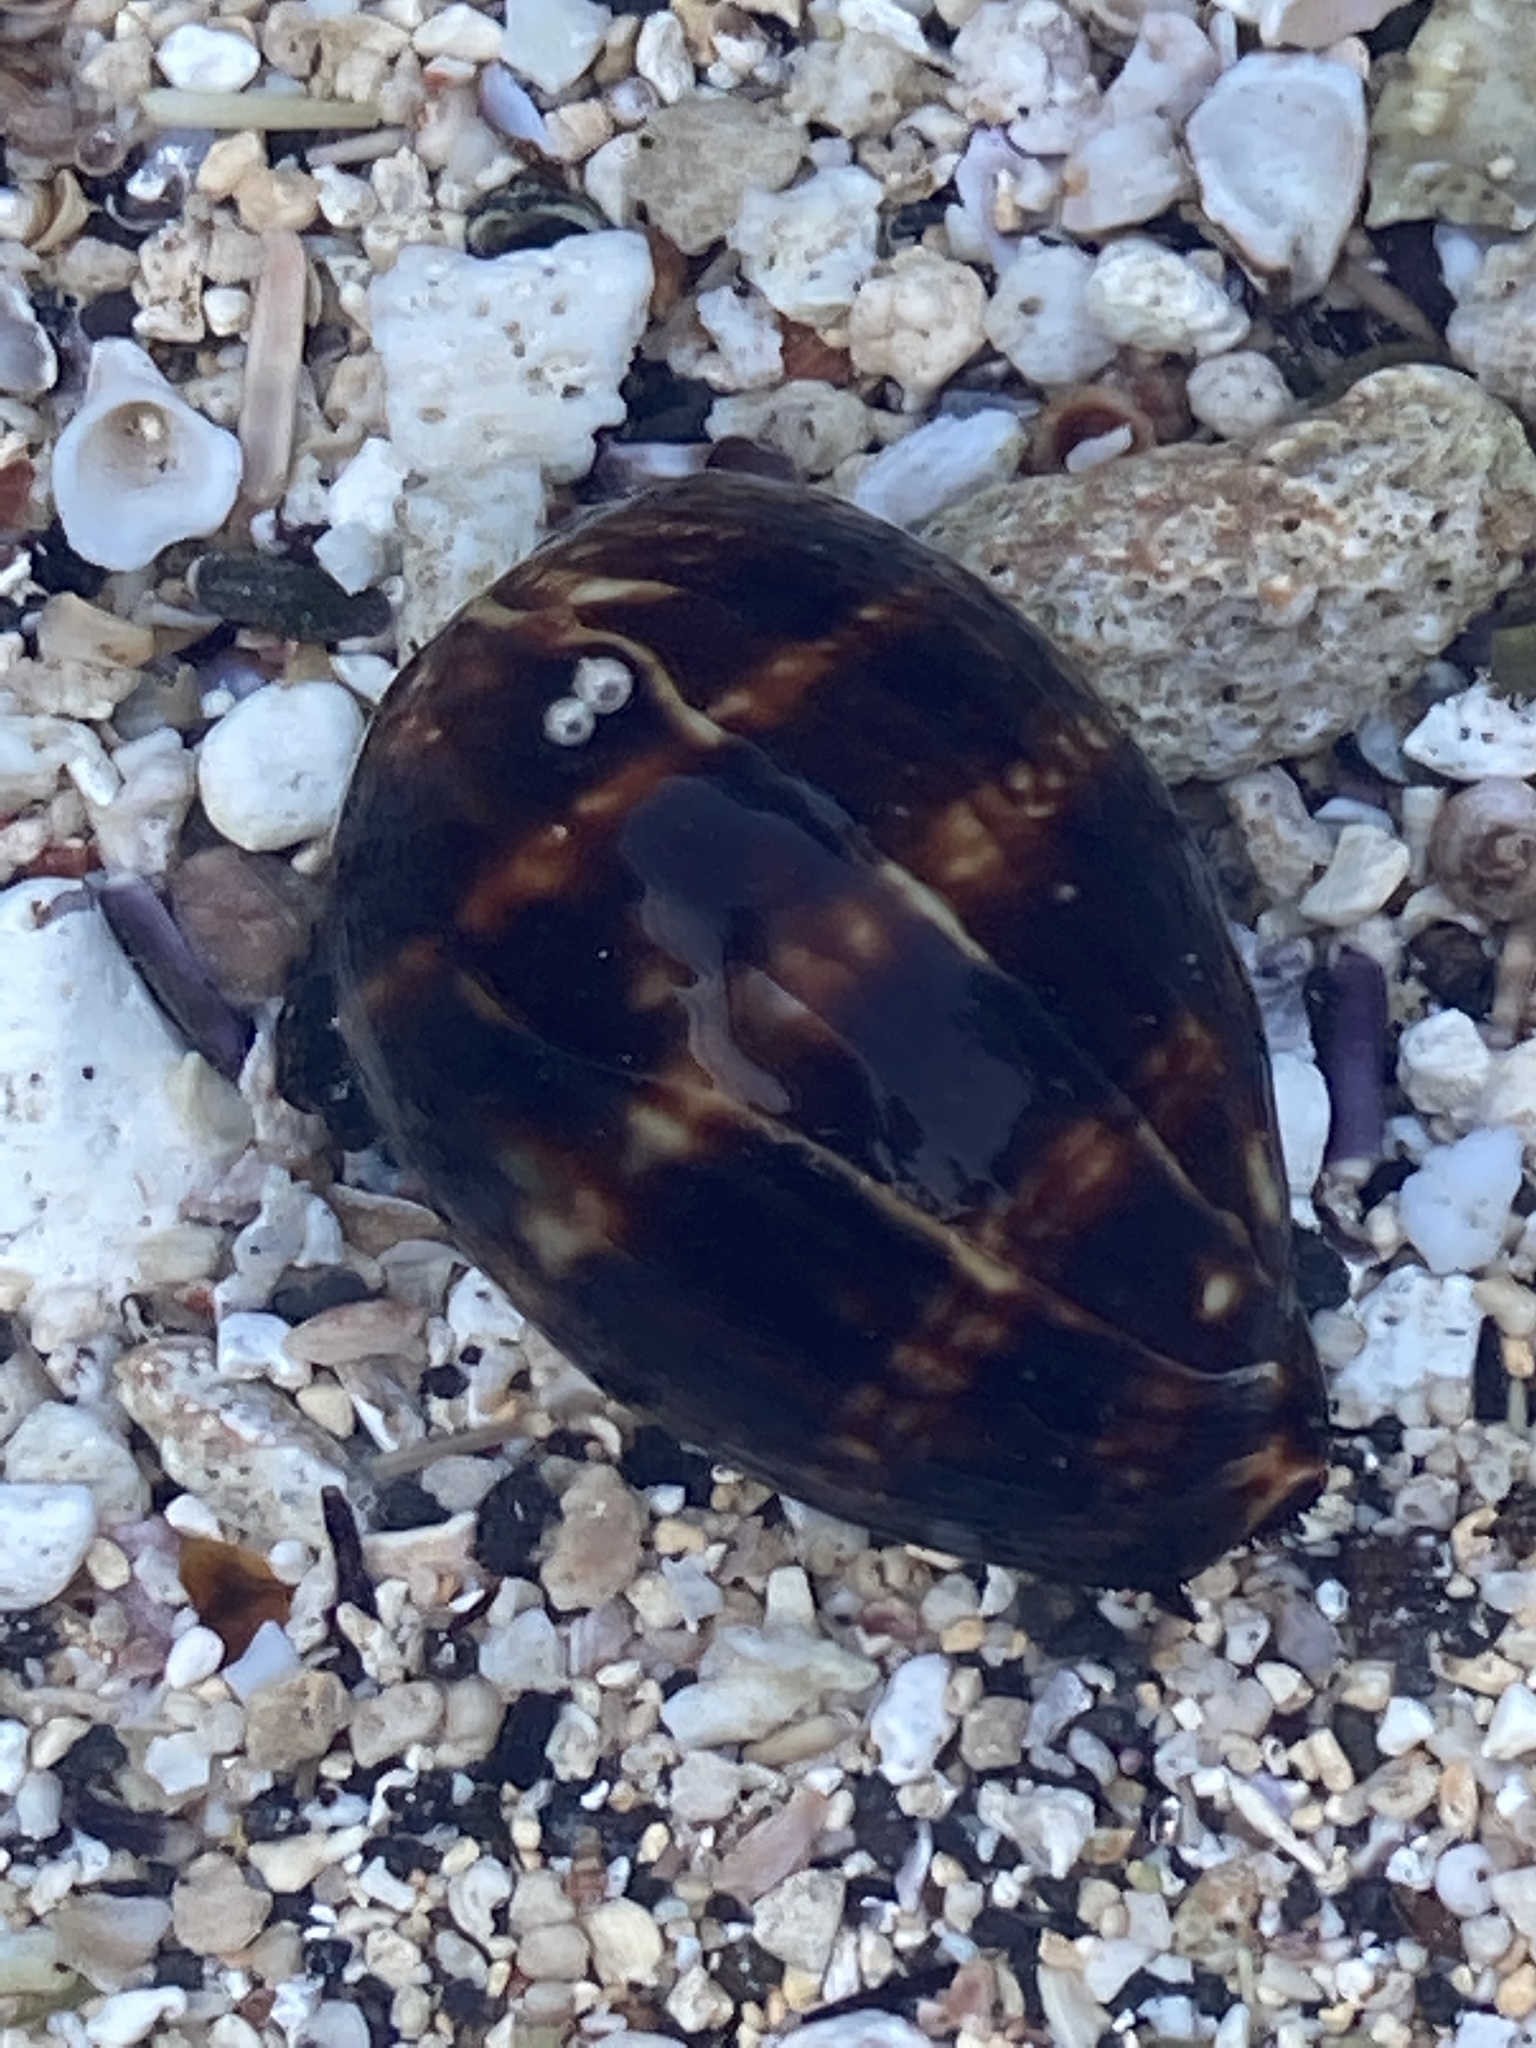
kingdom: Animalia
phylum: Mollusca
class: Gastropoda
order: Littorinimorpha
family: Cypraeidae
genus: Mauritia
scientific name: Mauritia mauritiana
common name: Hump-backed cowrie
